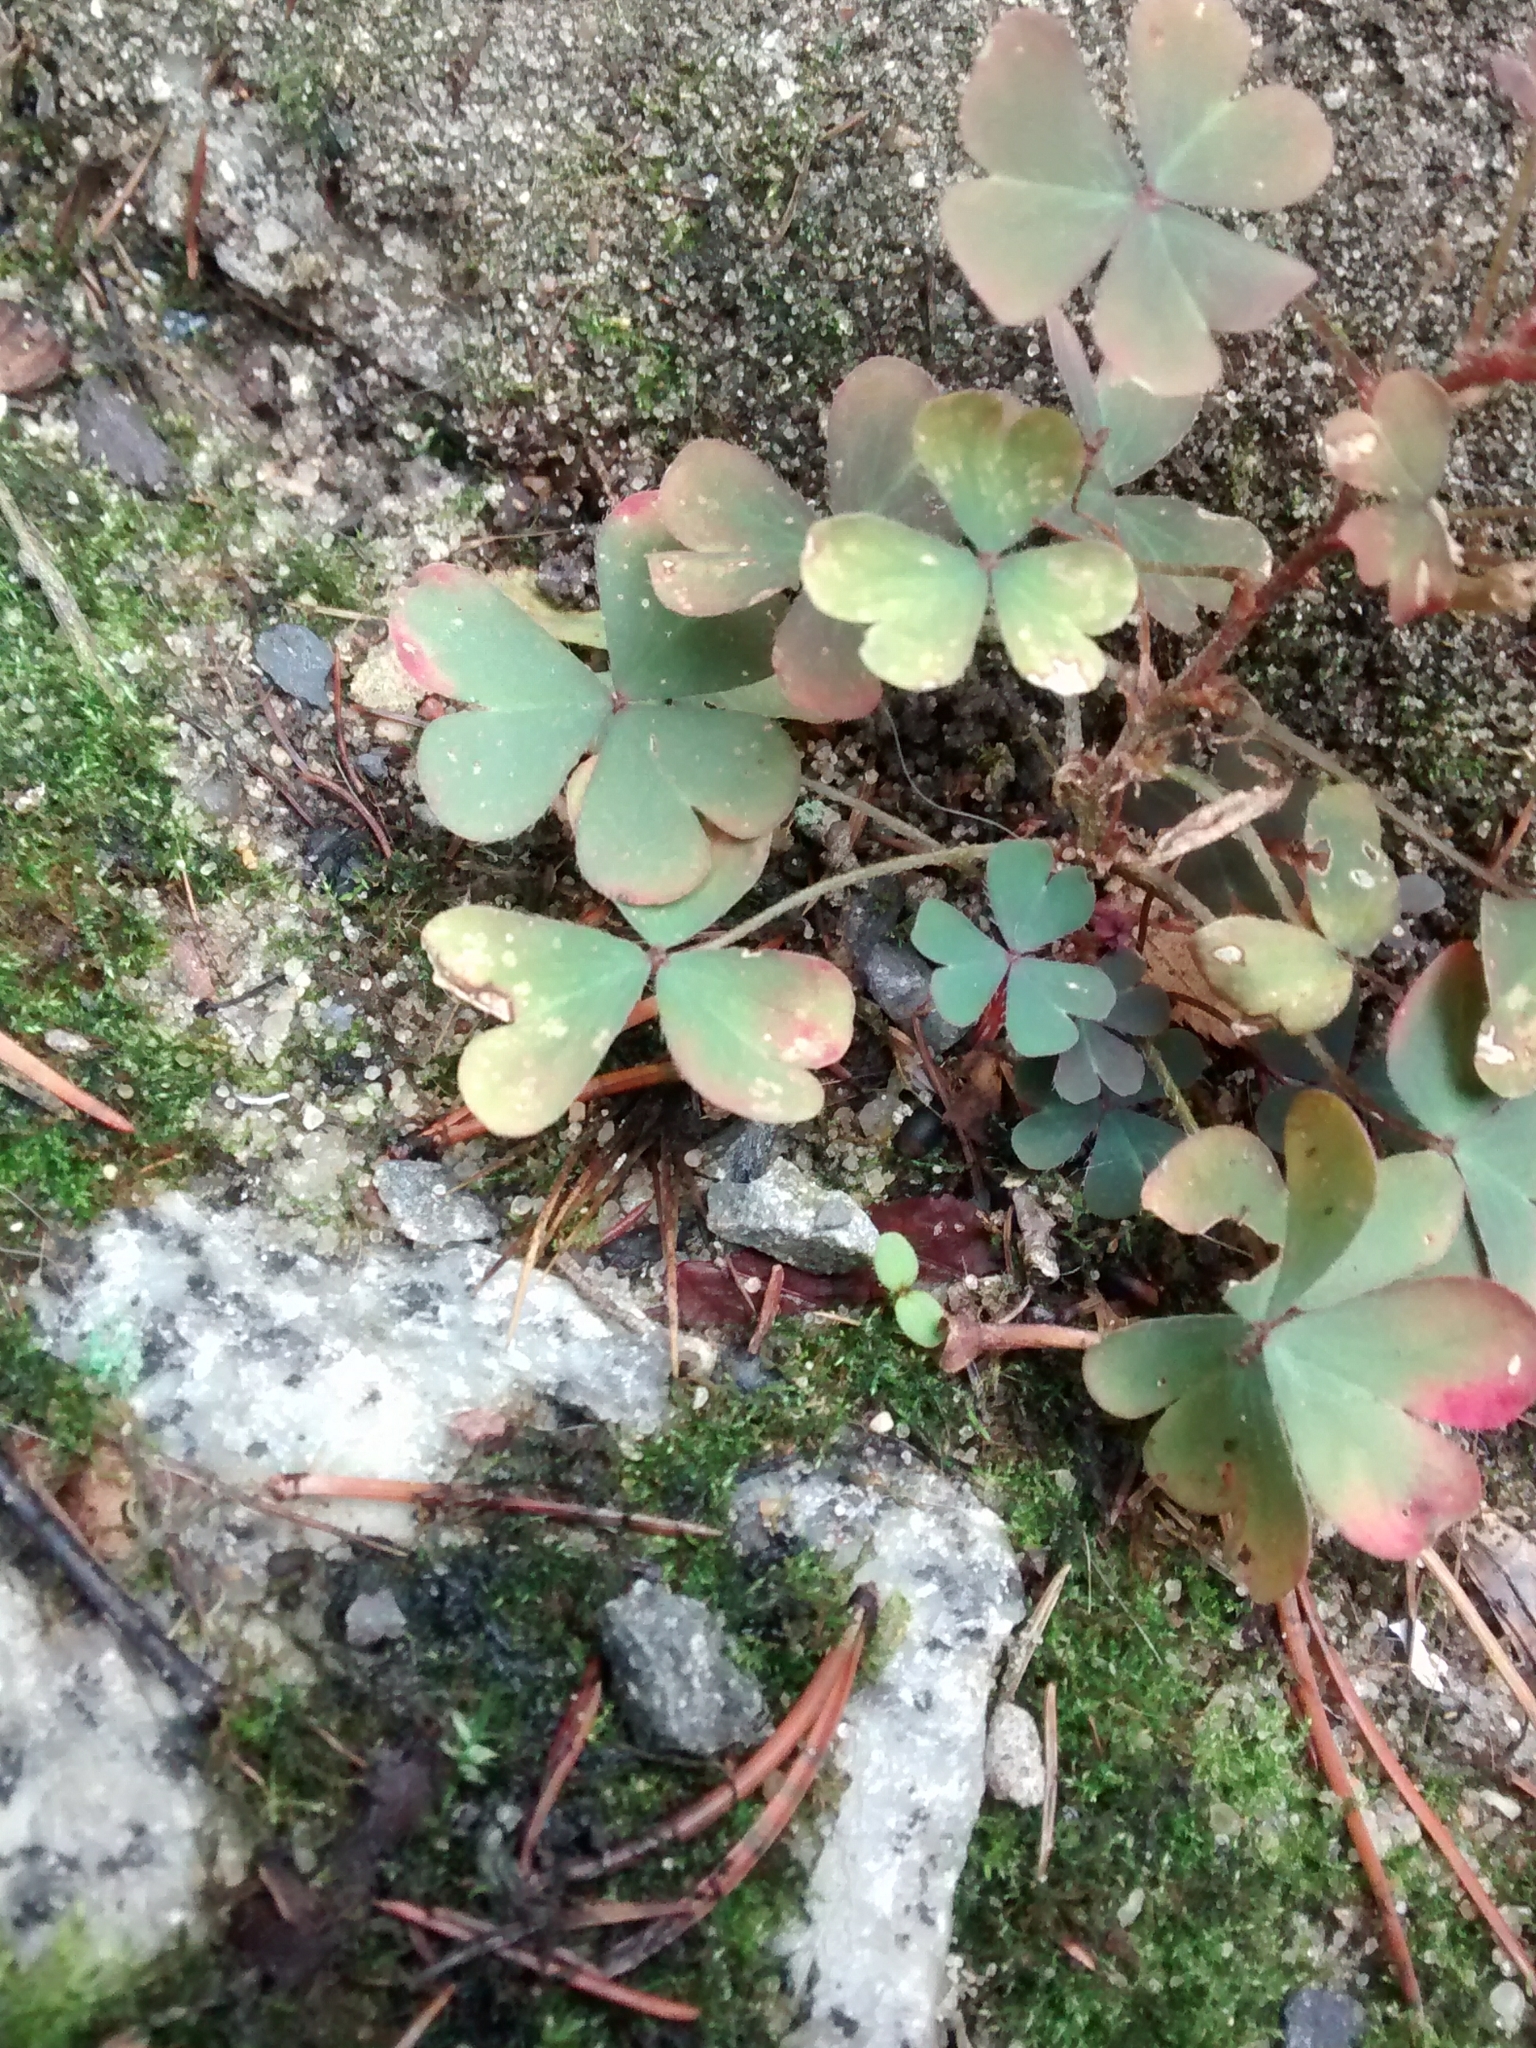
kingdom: Plantae
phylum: Tracheophyta
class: Magnoliopsida
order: Oxalidales
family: Oxalidaceae
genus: Oxalis
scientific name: Oxalis corniculata
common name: Procumbent yellow-sorrel
